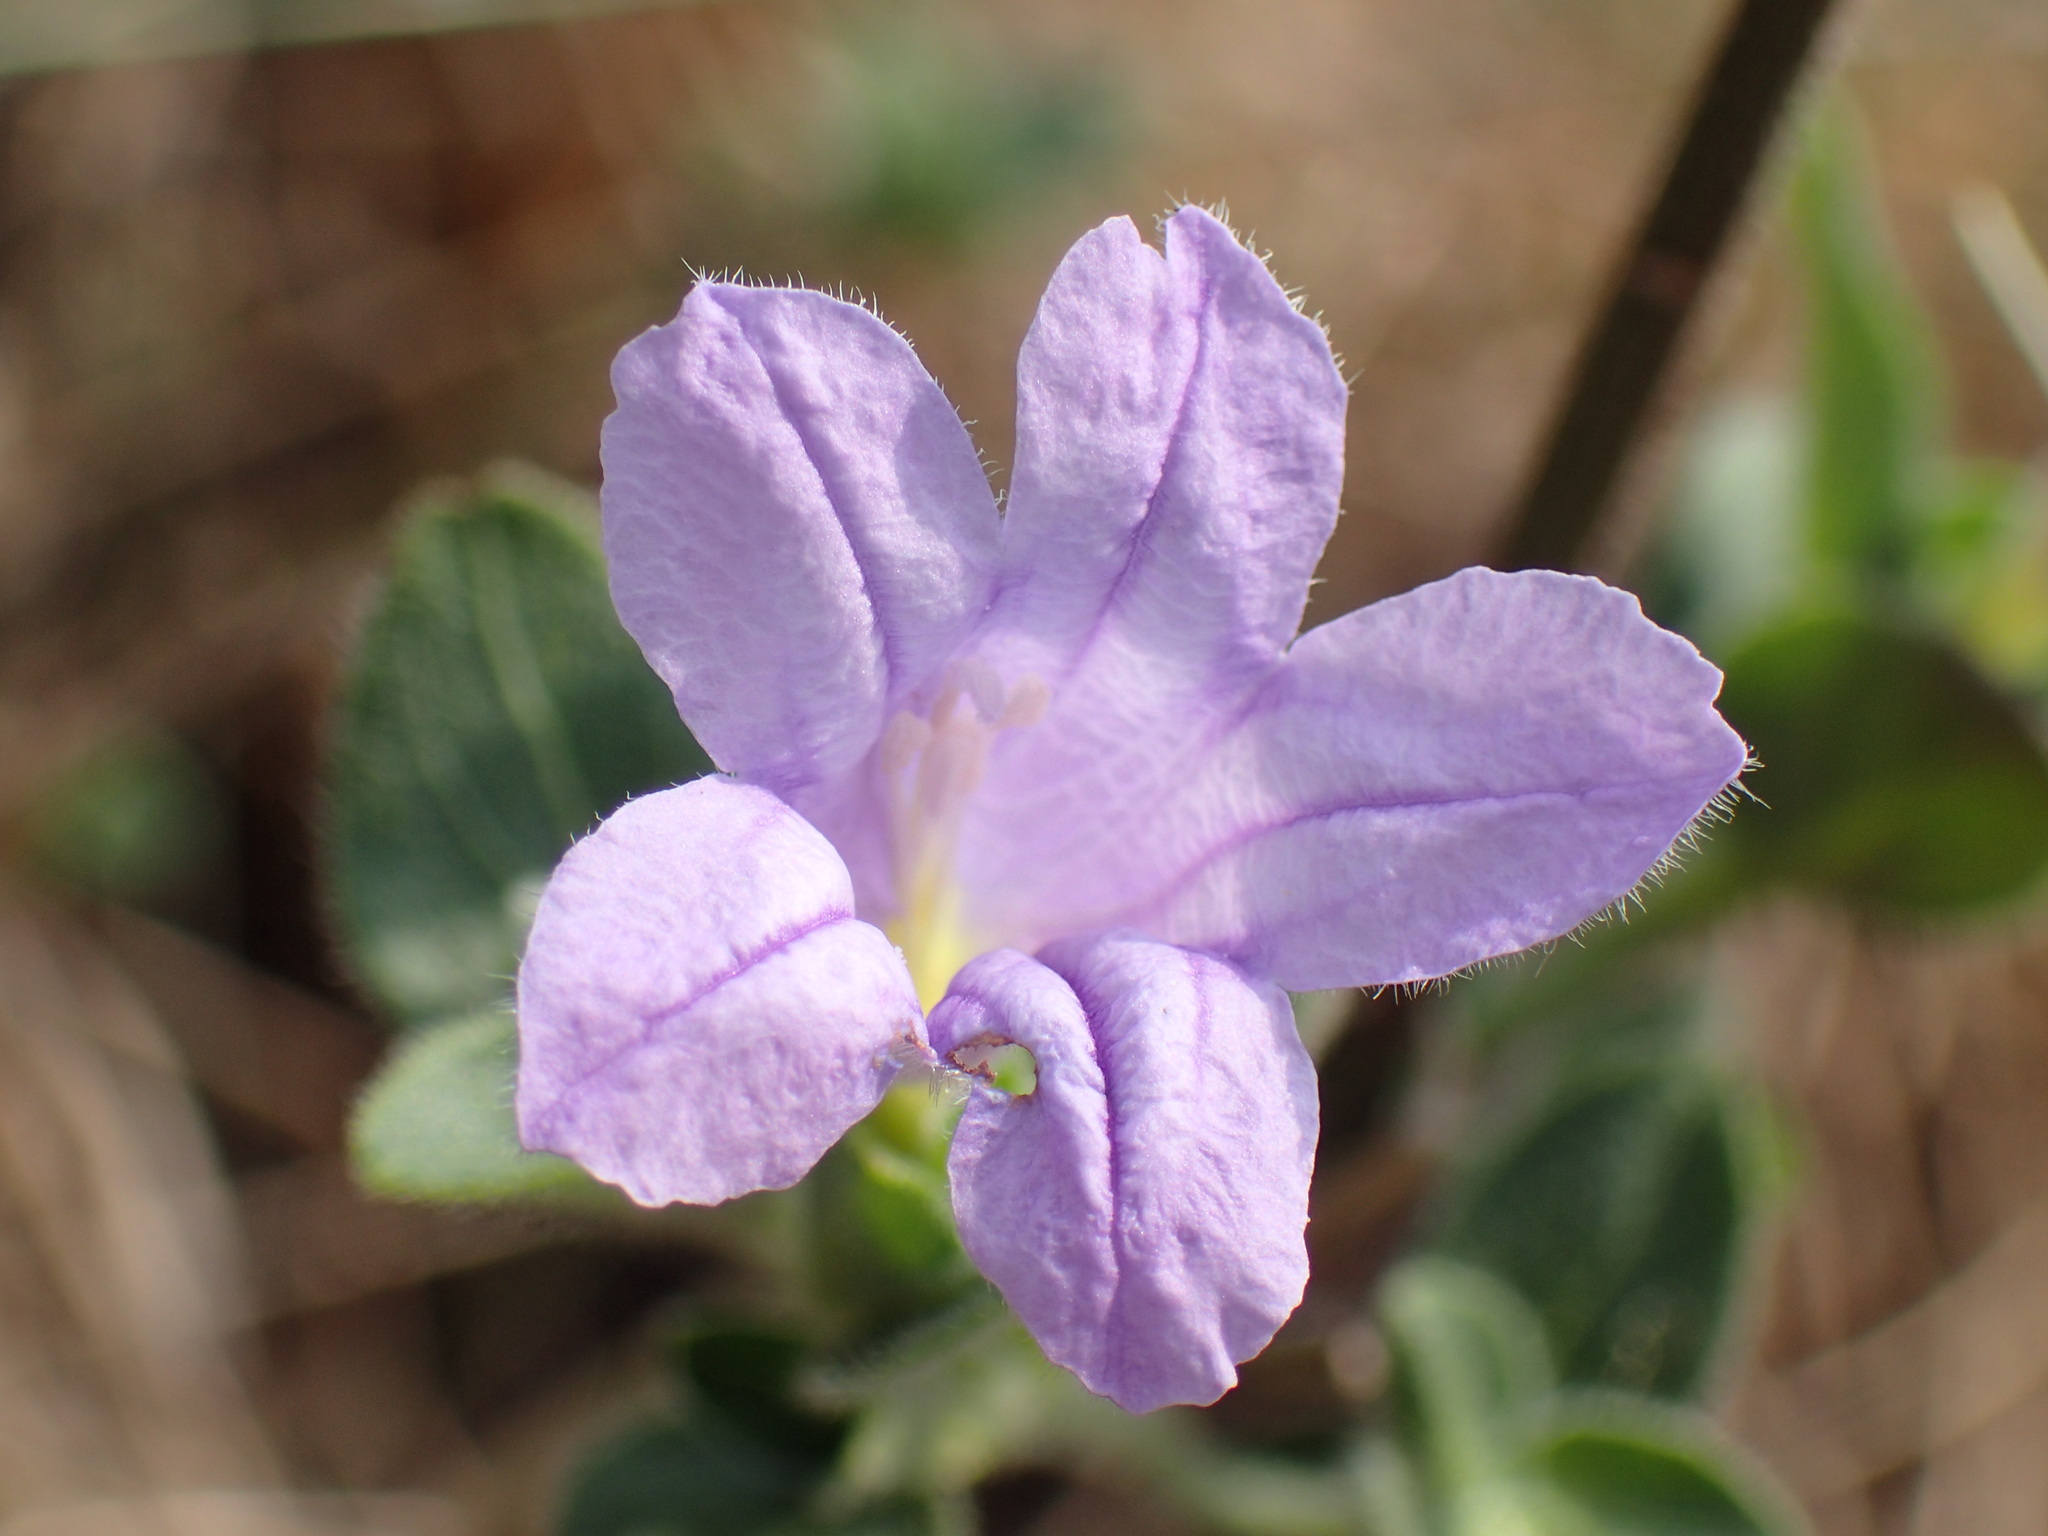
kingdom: Plantae
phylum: Tracheophyta
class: Magnoliopsida
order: Lamiales
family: Acanthaceae
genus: Ruellia
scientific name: Ruellia patula
